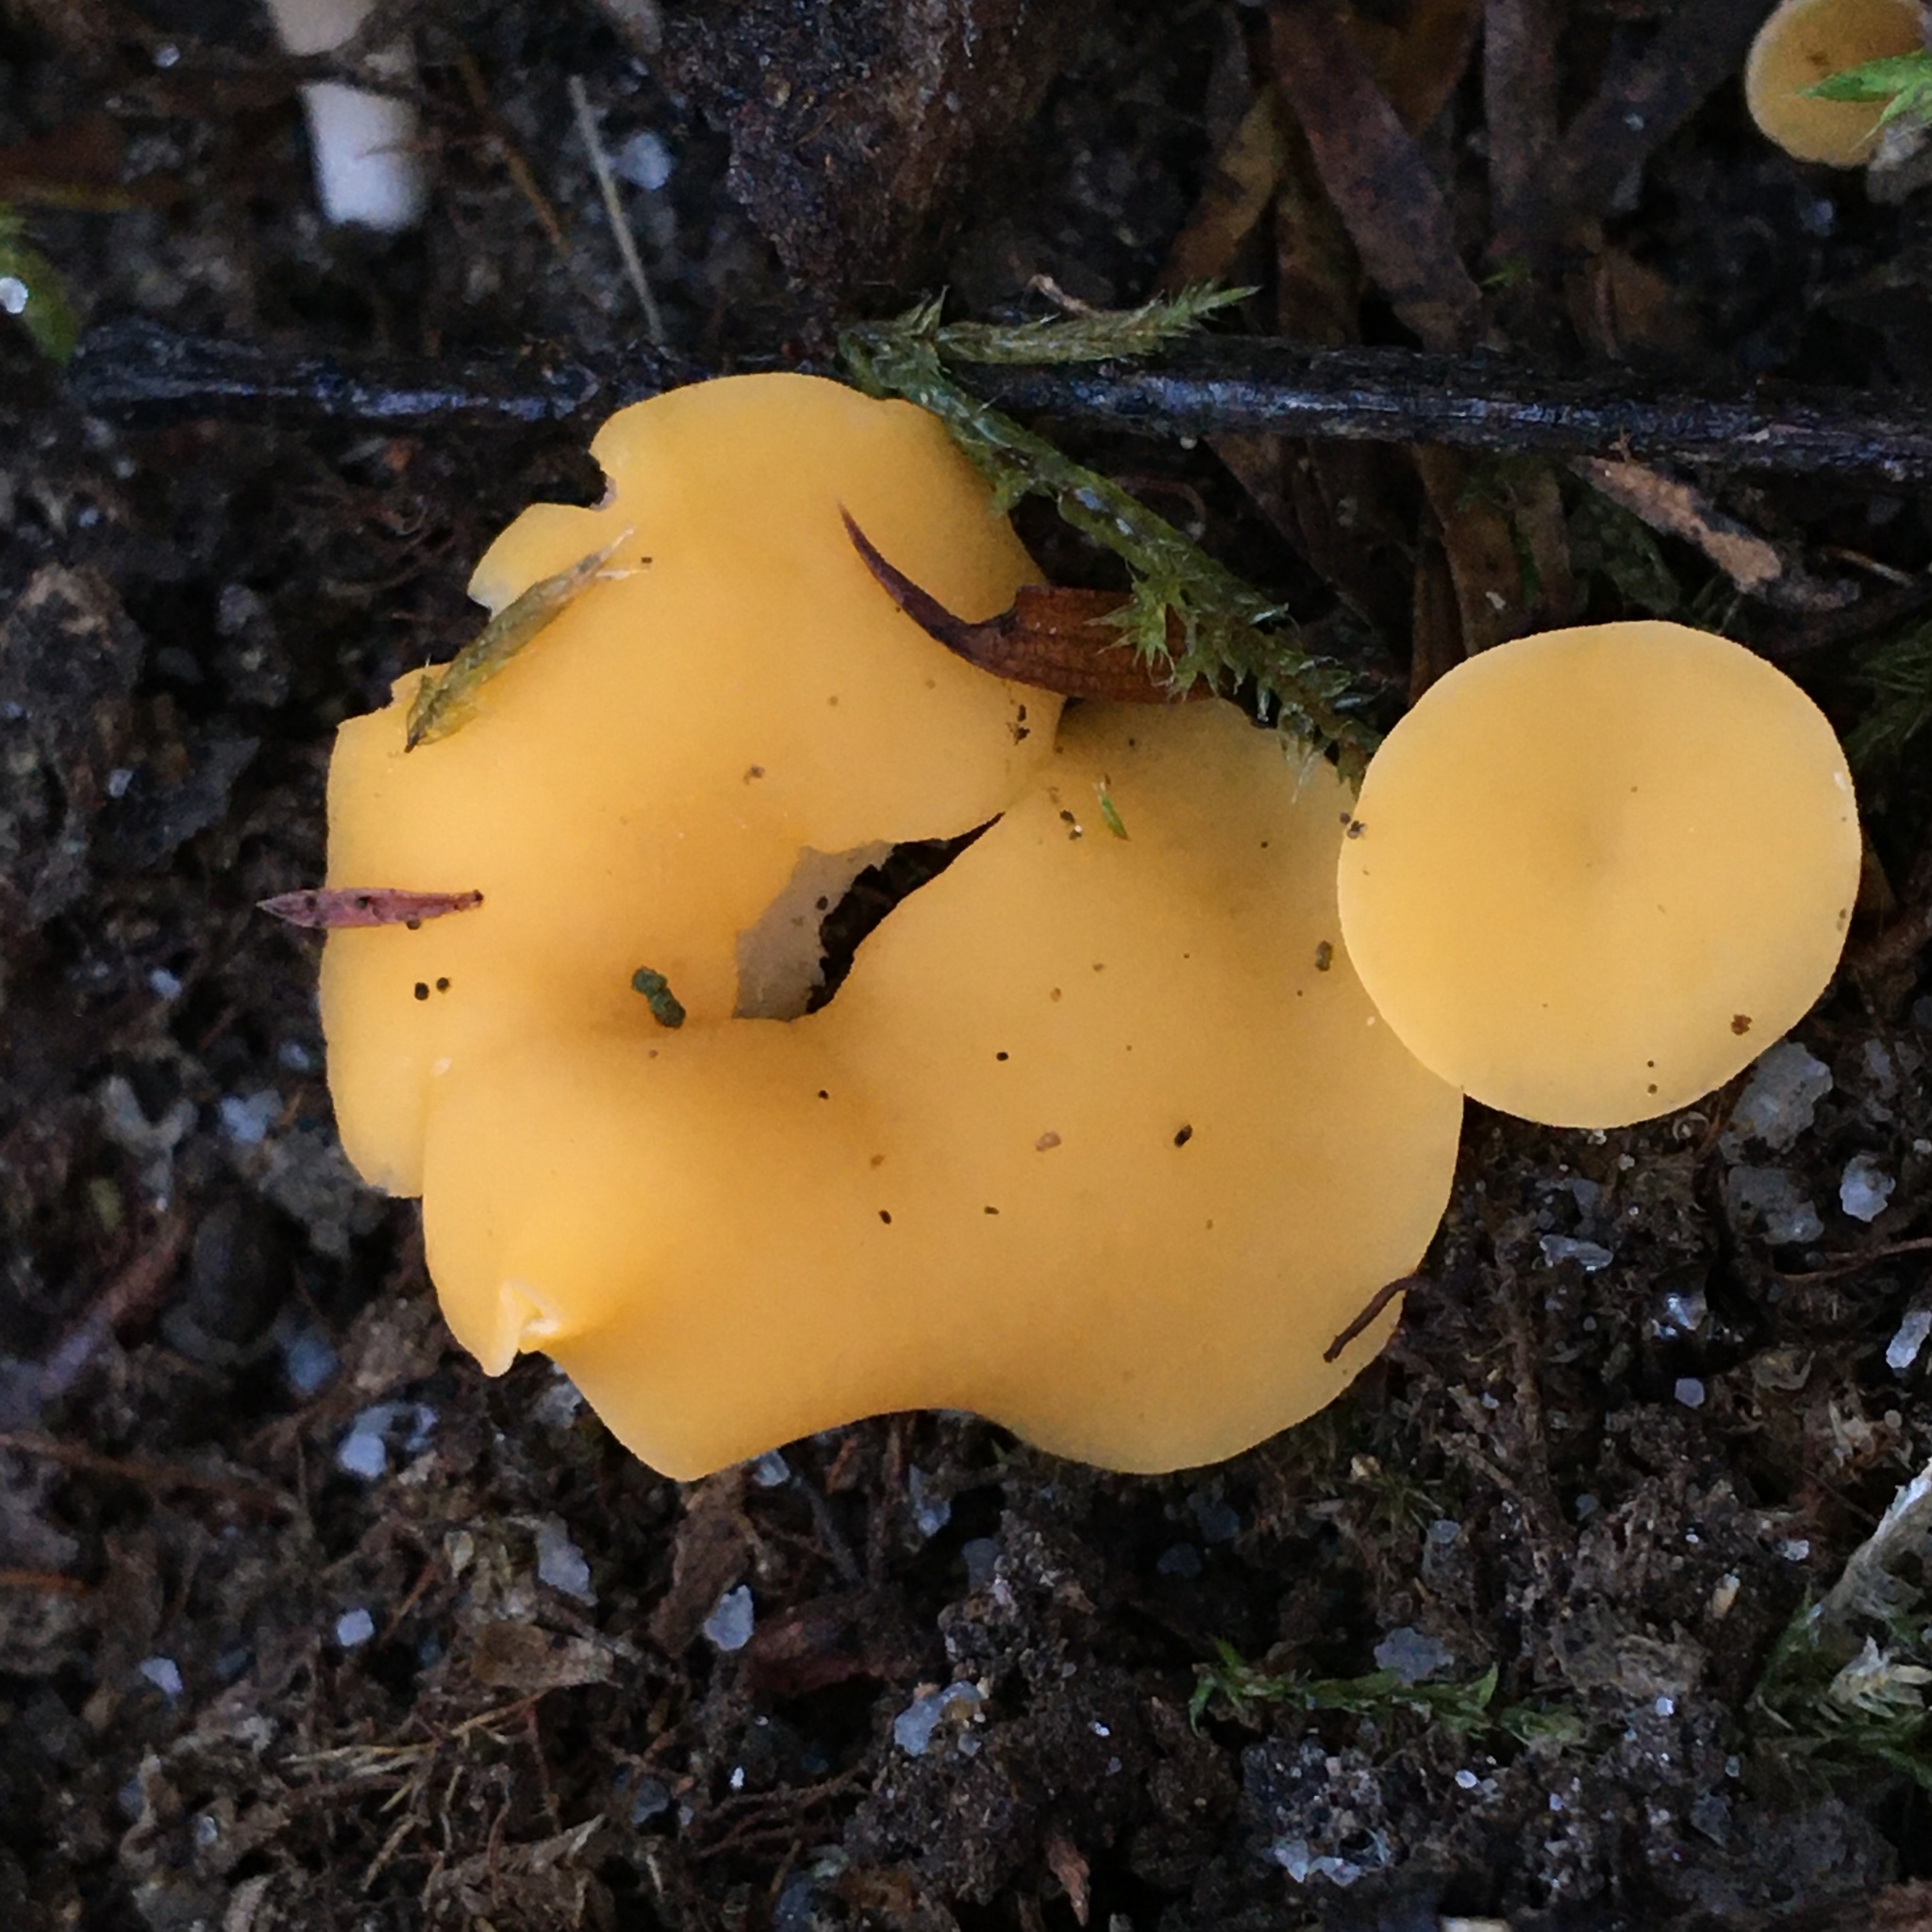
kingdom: Fungi
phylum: Ascomycota
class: Leotiomycetes
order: Helotiales
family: Helotiaceae
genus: Phaeohelotium
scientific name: Phaeohelotium baileyanum
